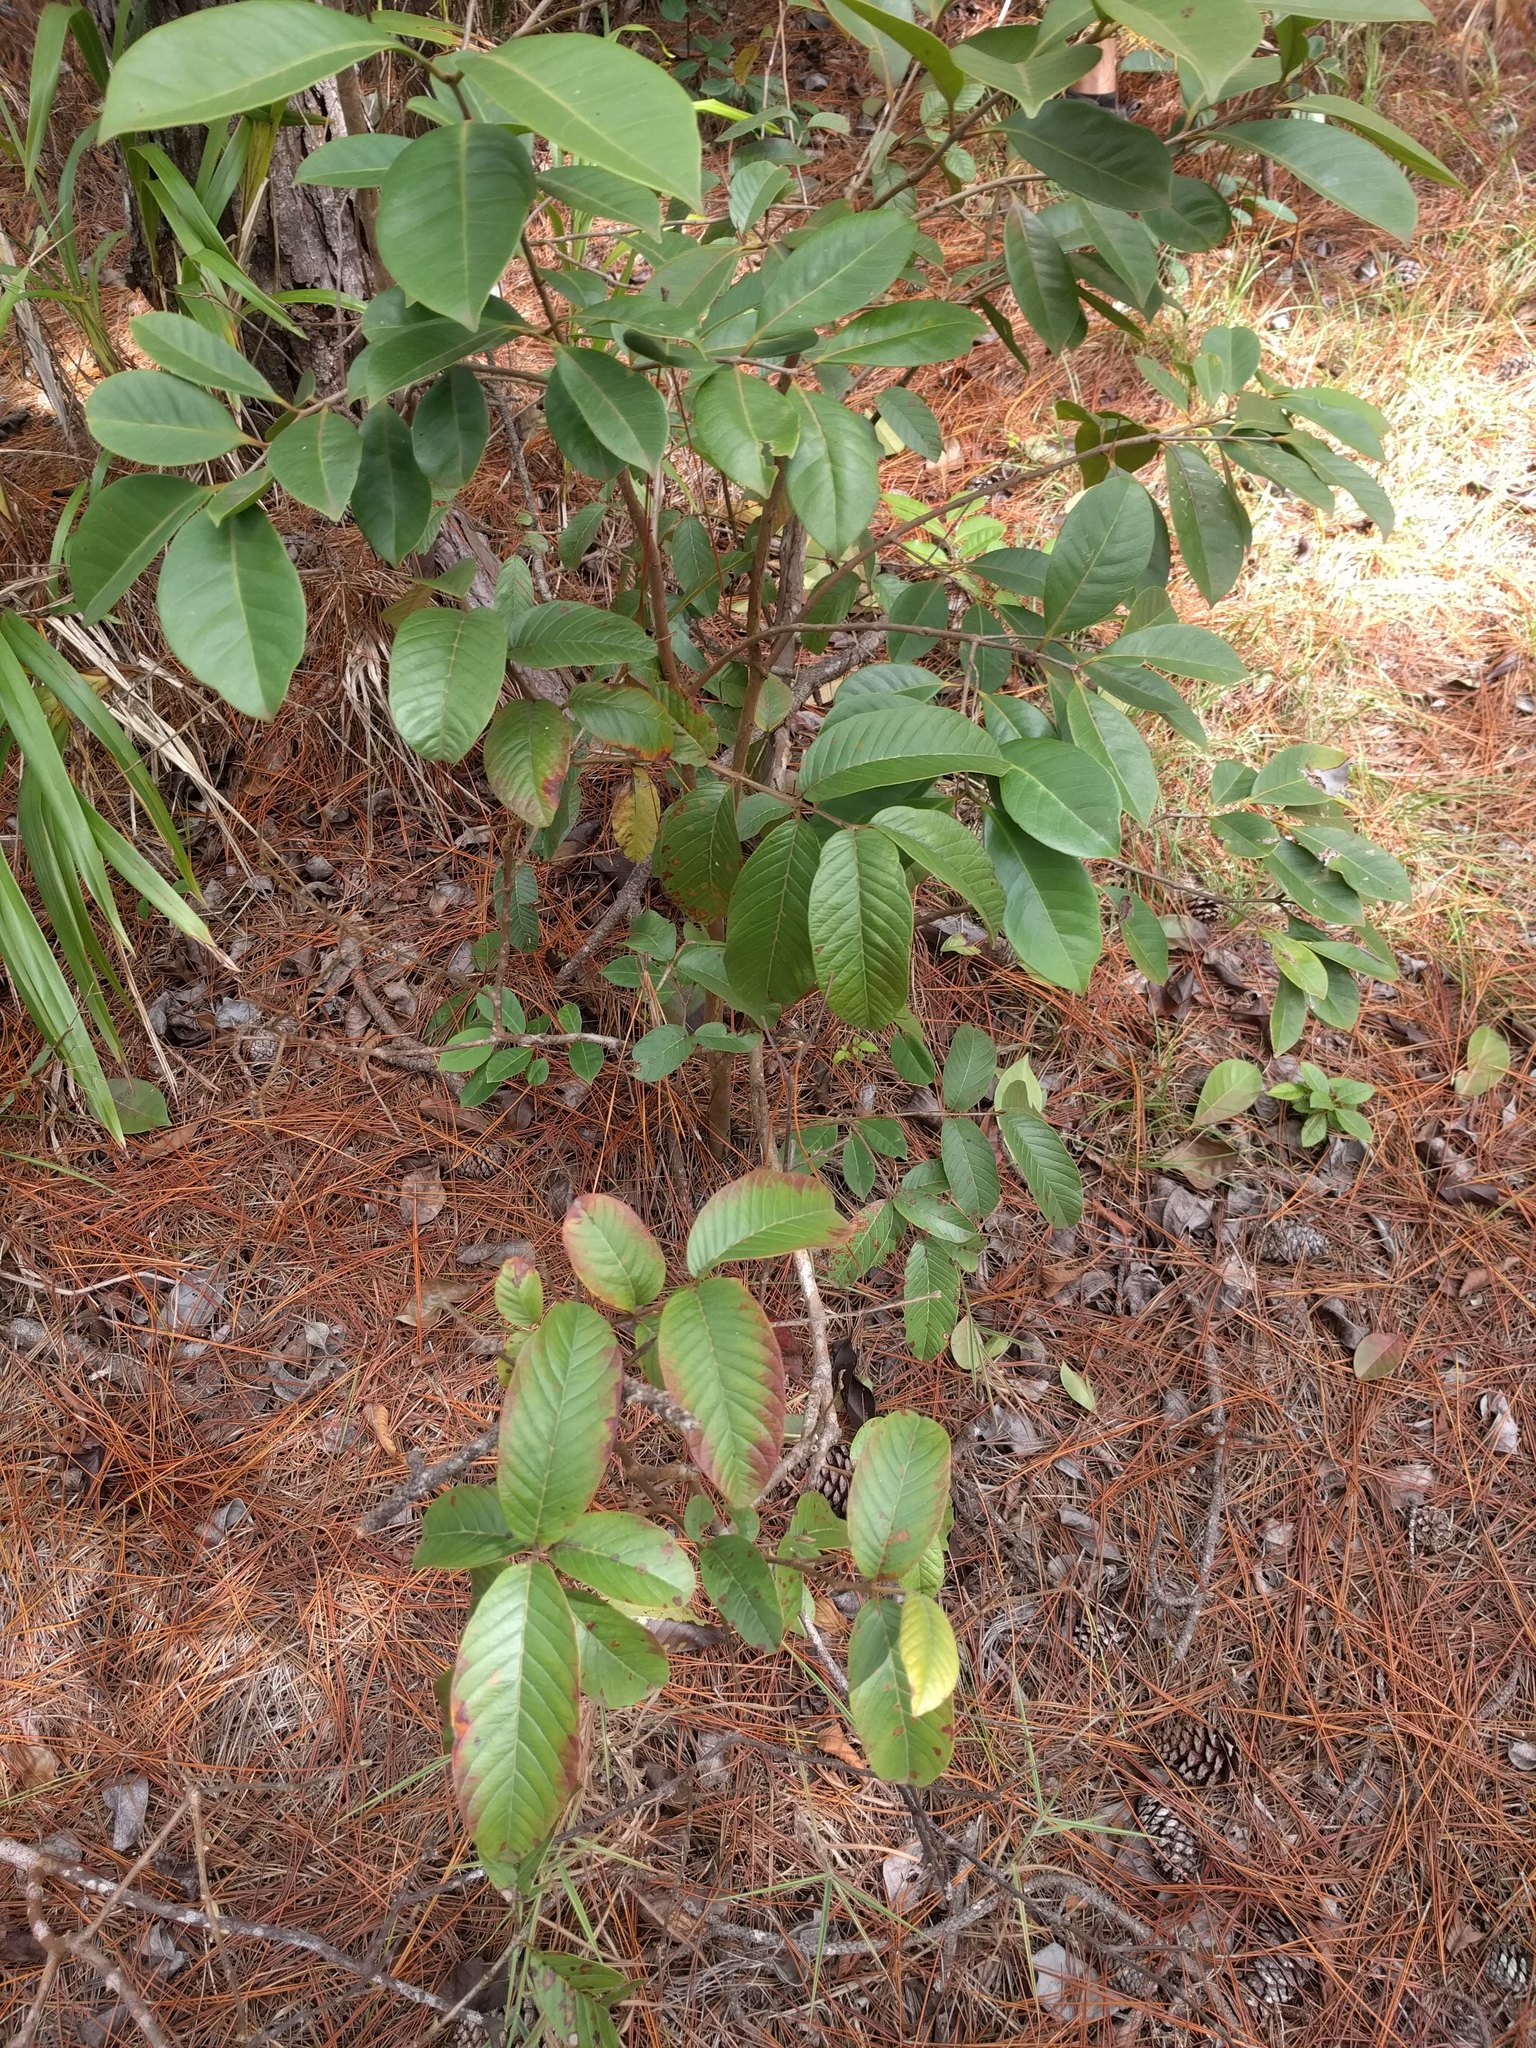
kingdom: Plantae
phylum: Tracheophyta
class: Magnoliopsida
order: Myrtales
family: Myrtaceae
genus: Psidium
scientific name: Psidium guajava
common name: Guava
